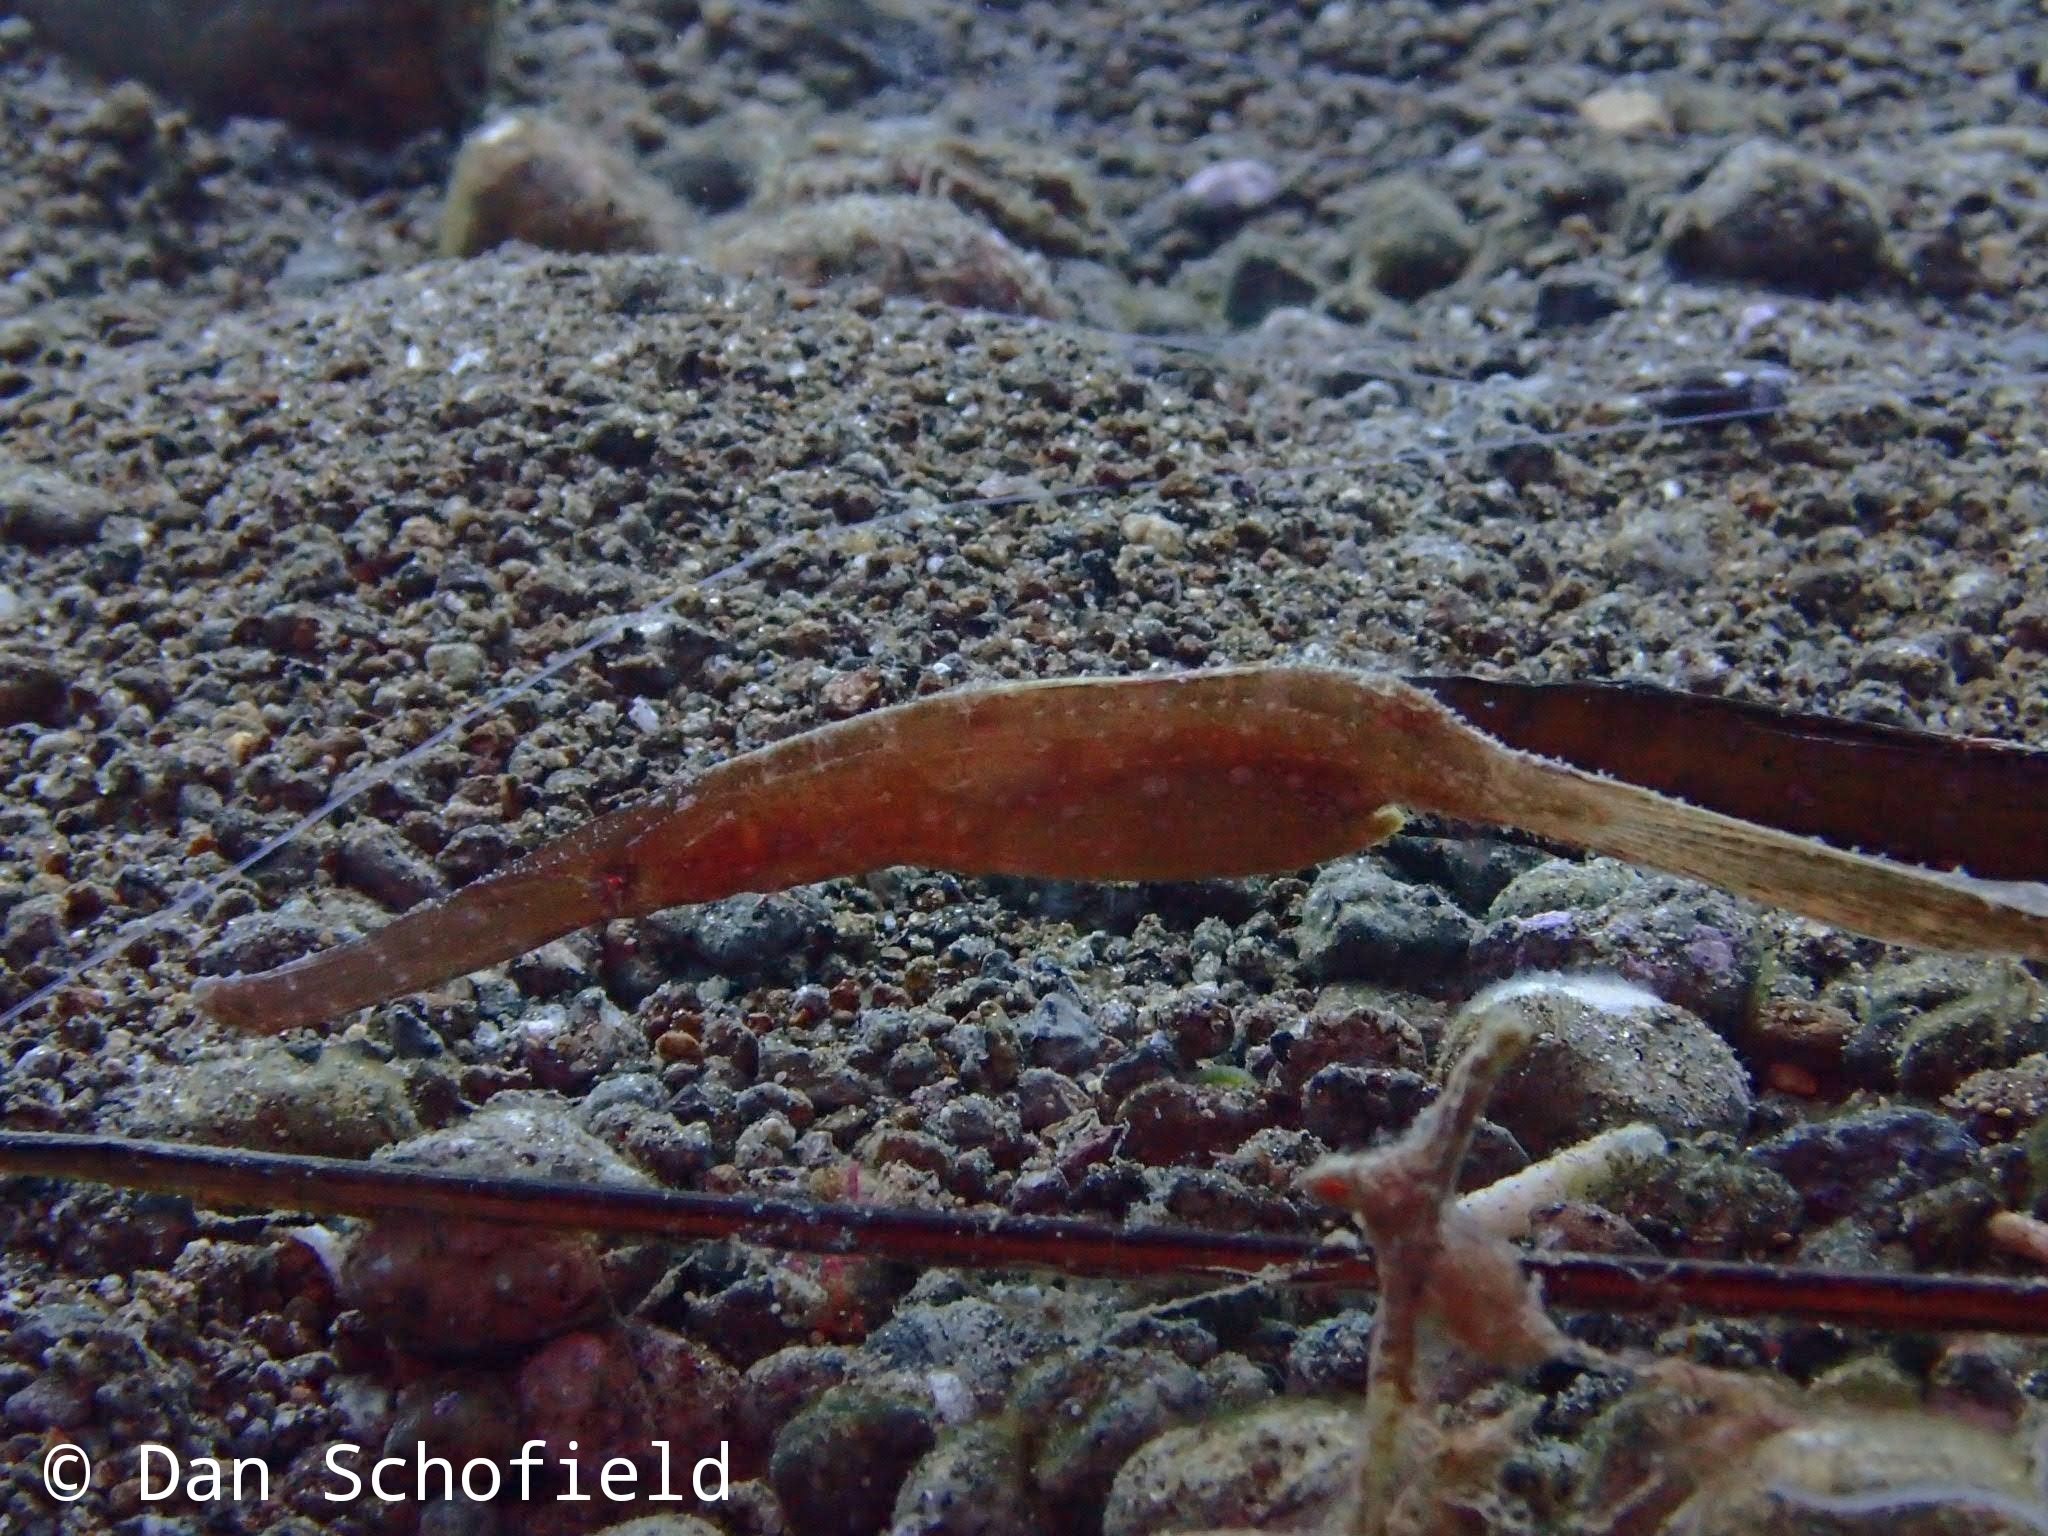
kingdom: Animalia
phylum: Chordata
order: Syngnathiformes
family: Solenostomidae
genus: Solenostomus
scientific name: Solenostomus cyanopterus
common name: Blue-finned ghost pipefish
